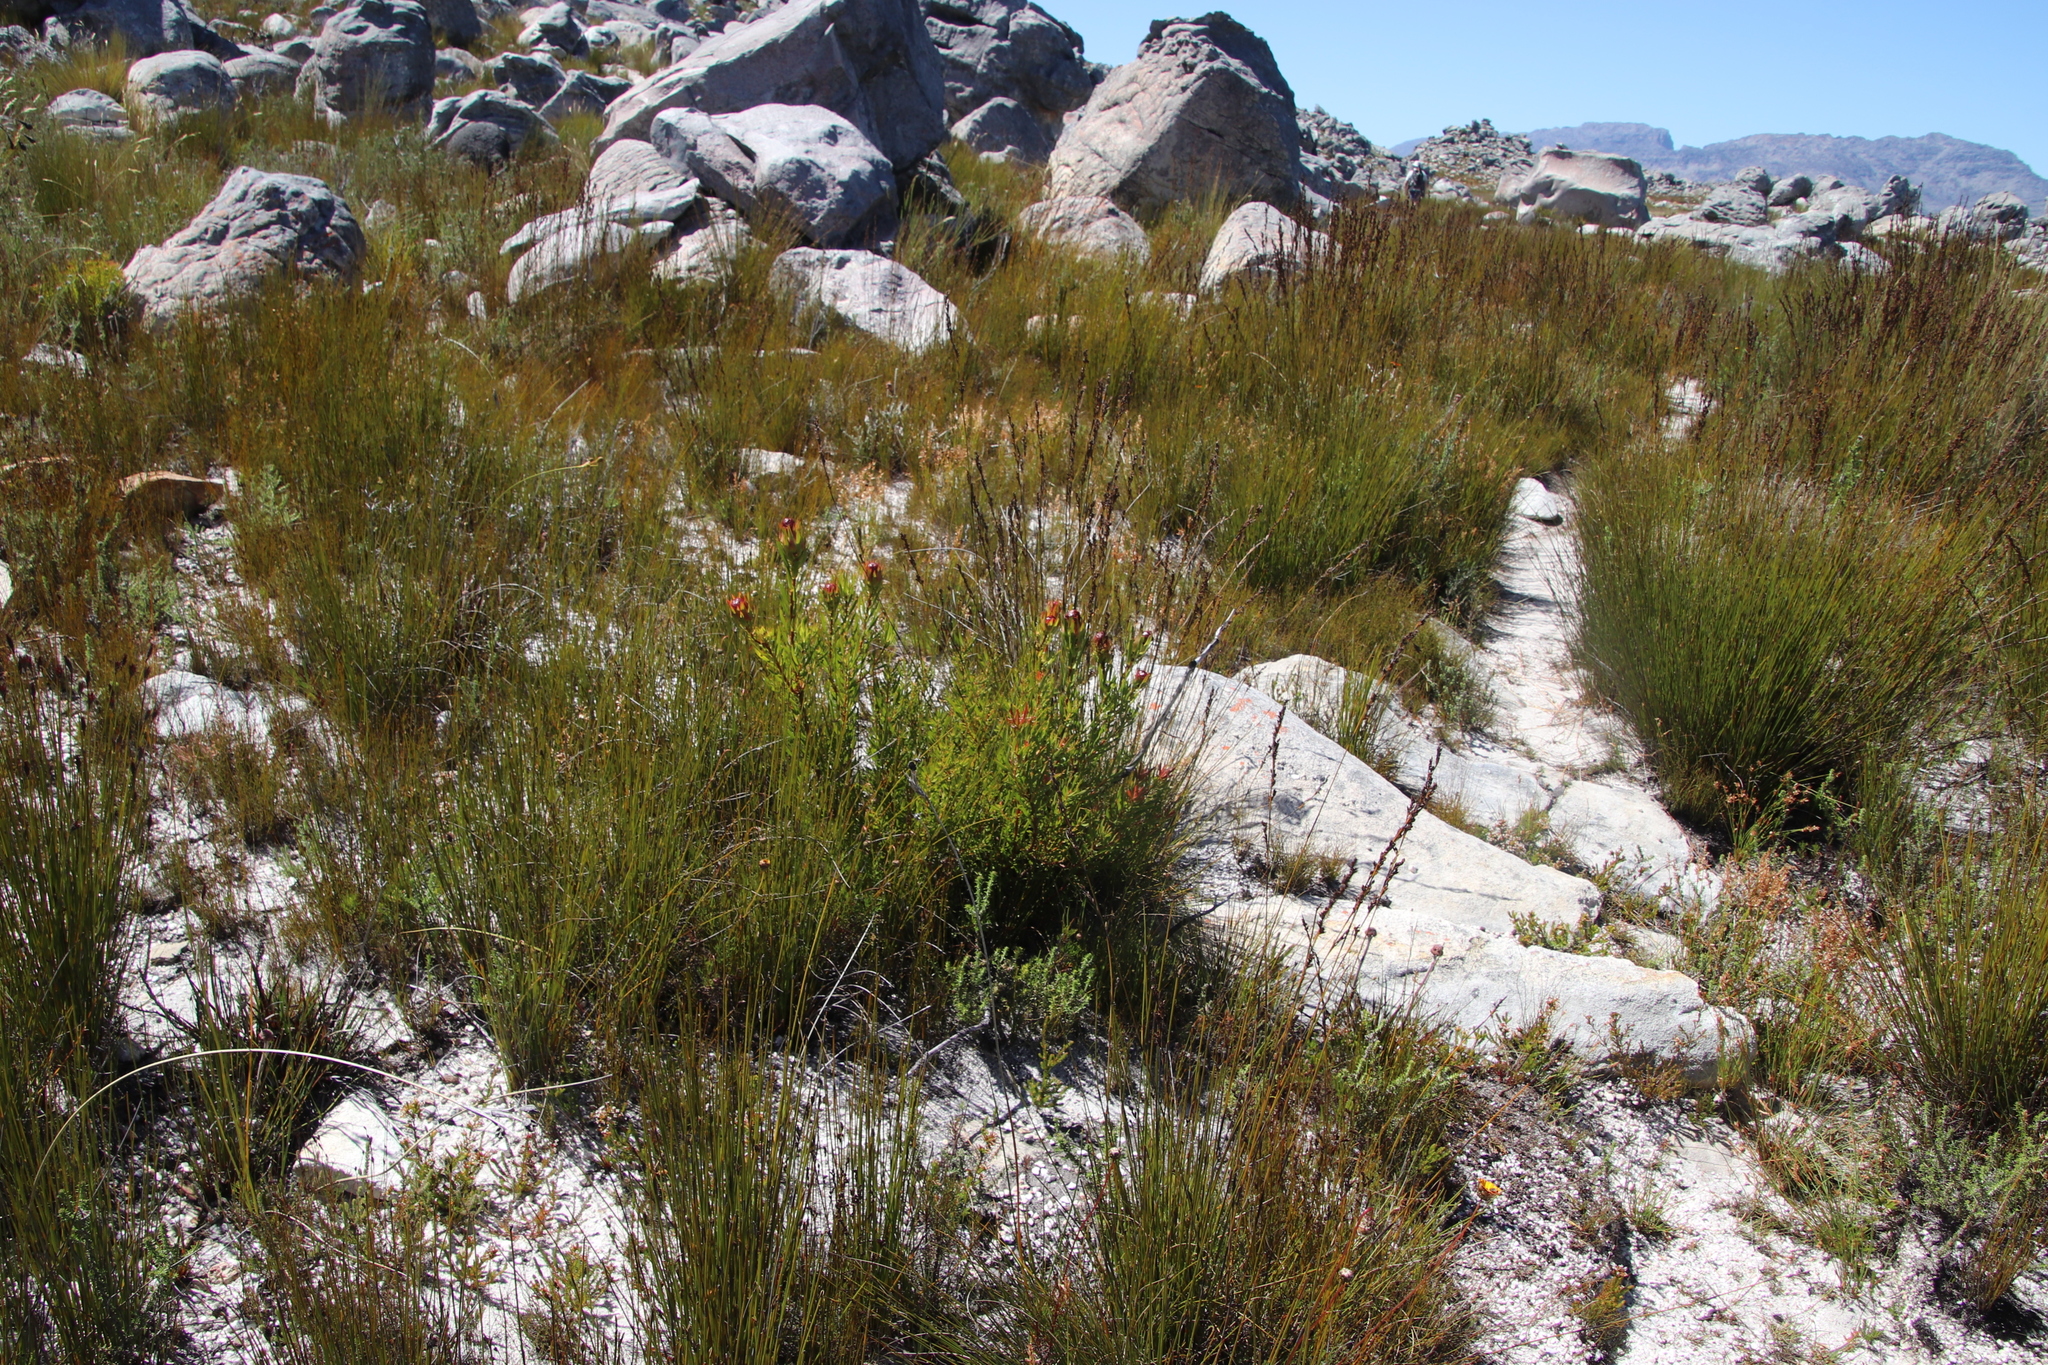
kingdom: Plantae
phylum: Tracheophyta
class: Magnoliopsida
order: Proteales
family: Proteaceae
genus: Leucadendron
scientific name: Leucadendron spissifolium
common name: Spear-leaf conebush
